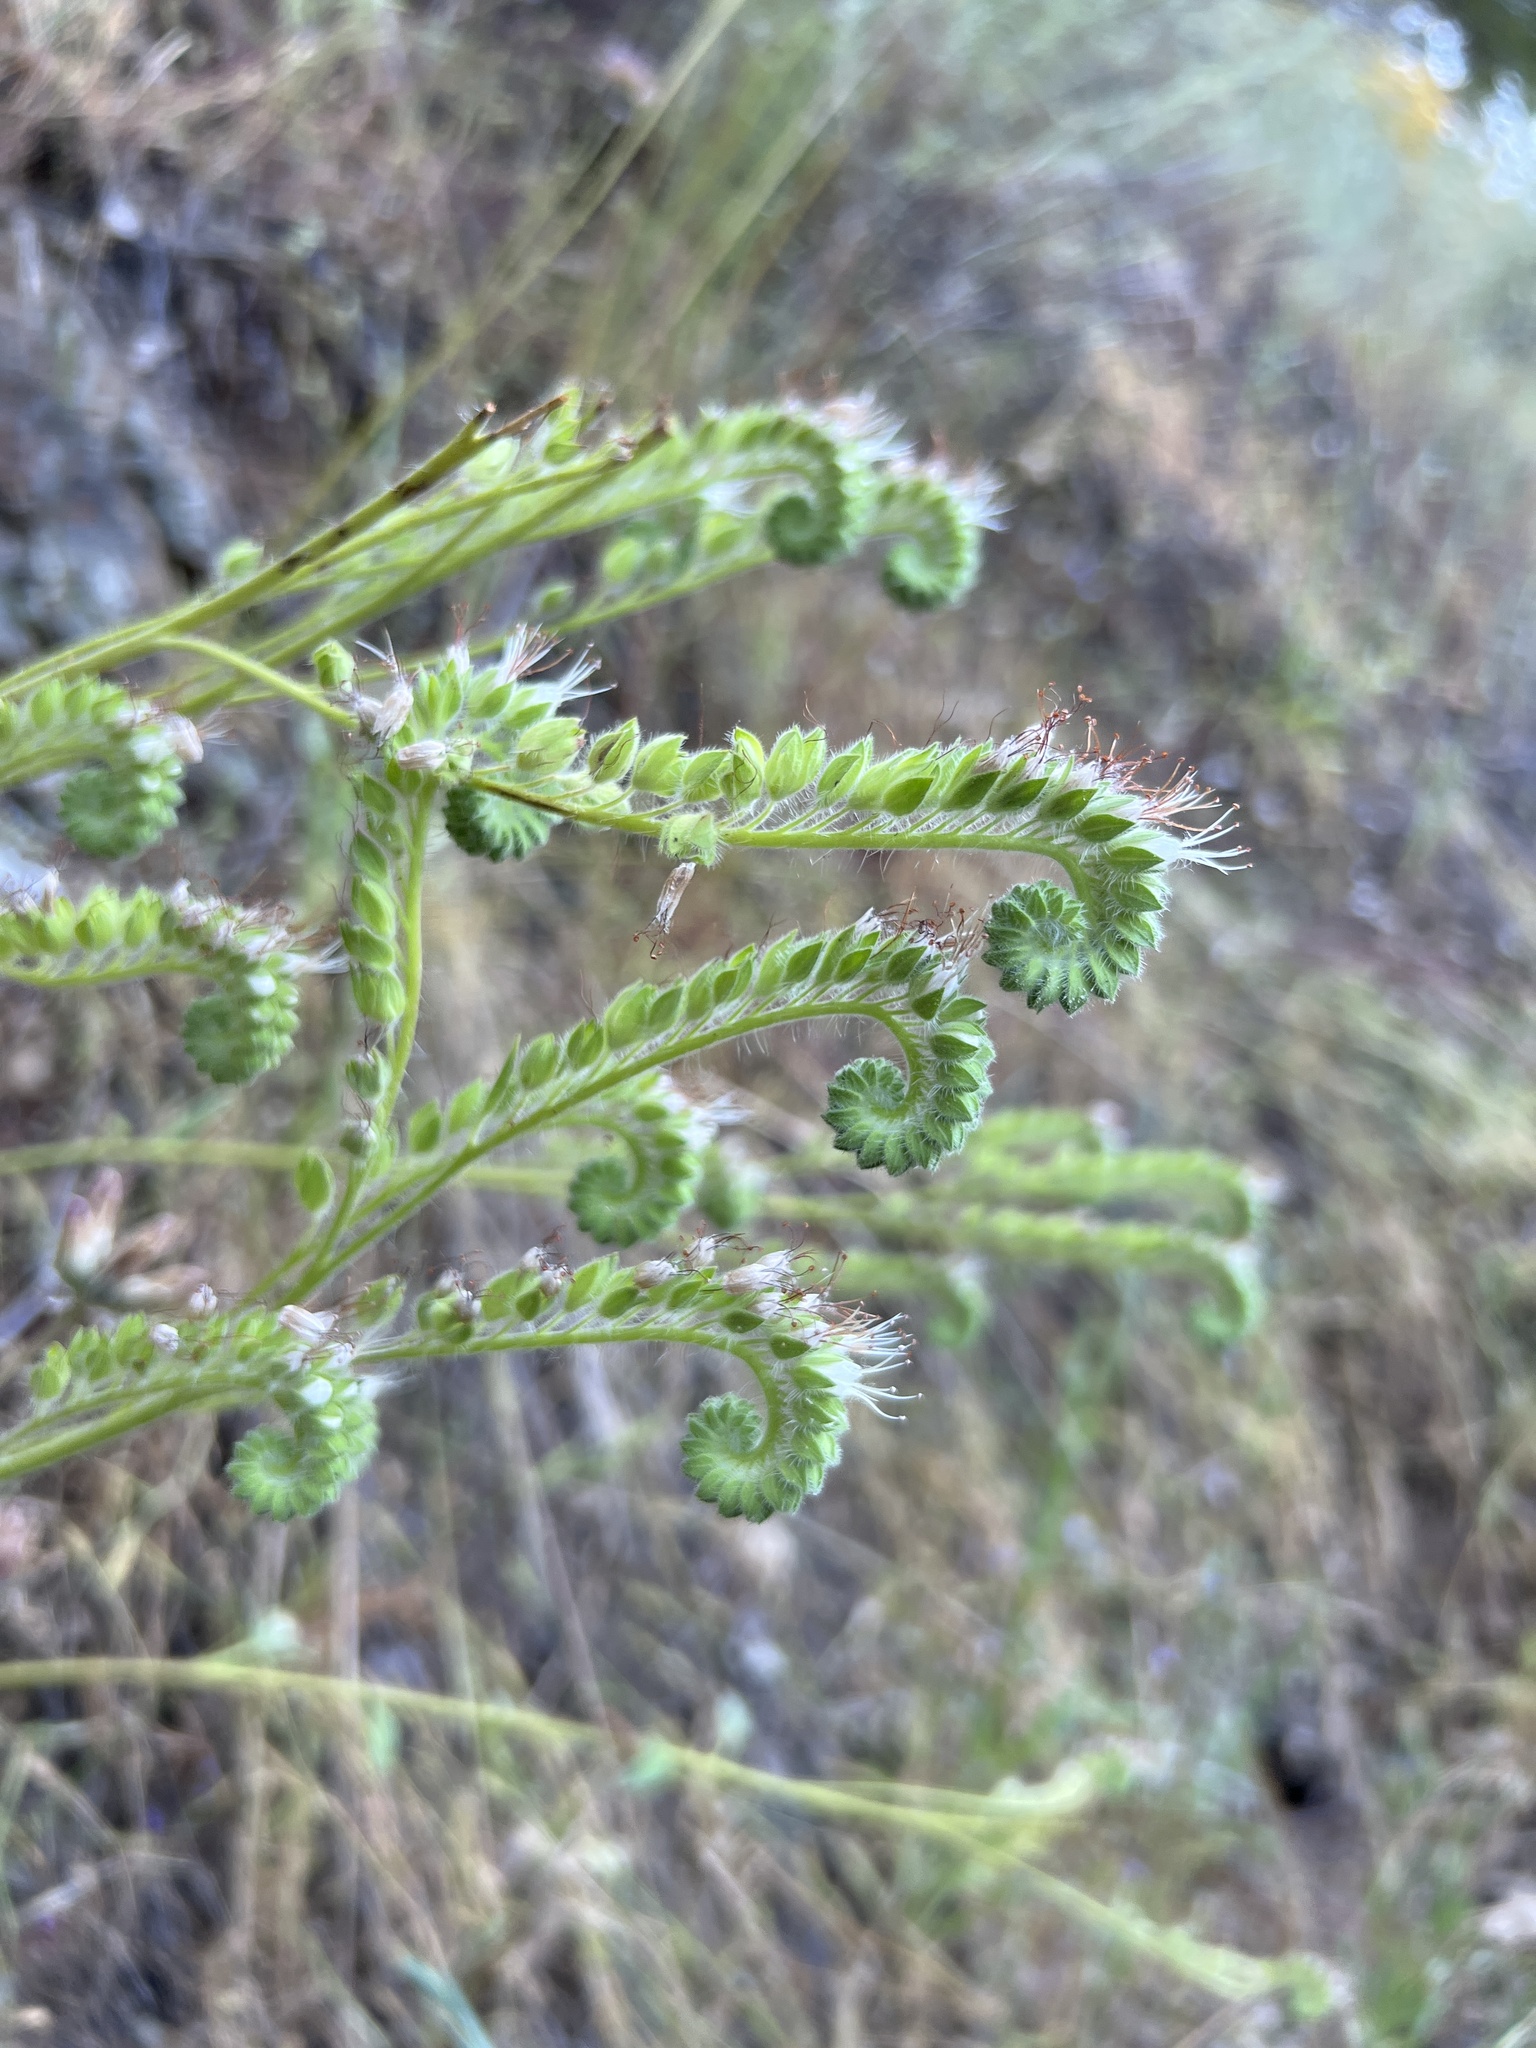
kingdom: Plantae
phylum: Tracheophyta
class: Magnoliopsida
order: Boraginales
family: Hydrophyllaceae
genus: Phacelia
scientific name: Phacelia imbricata
